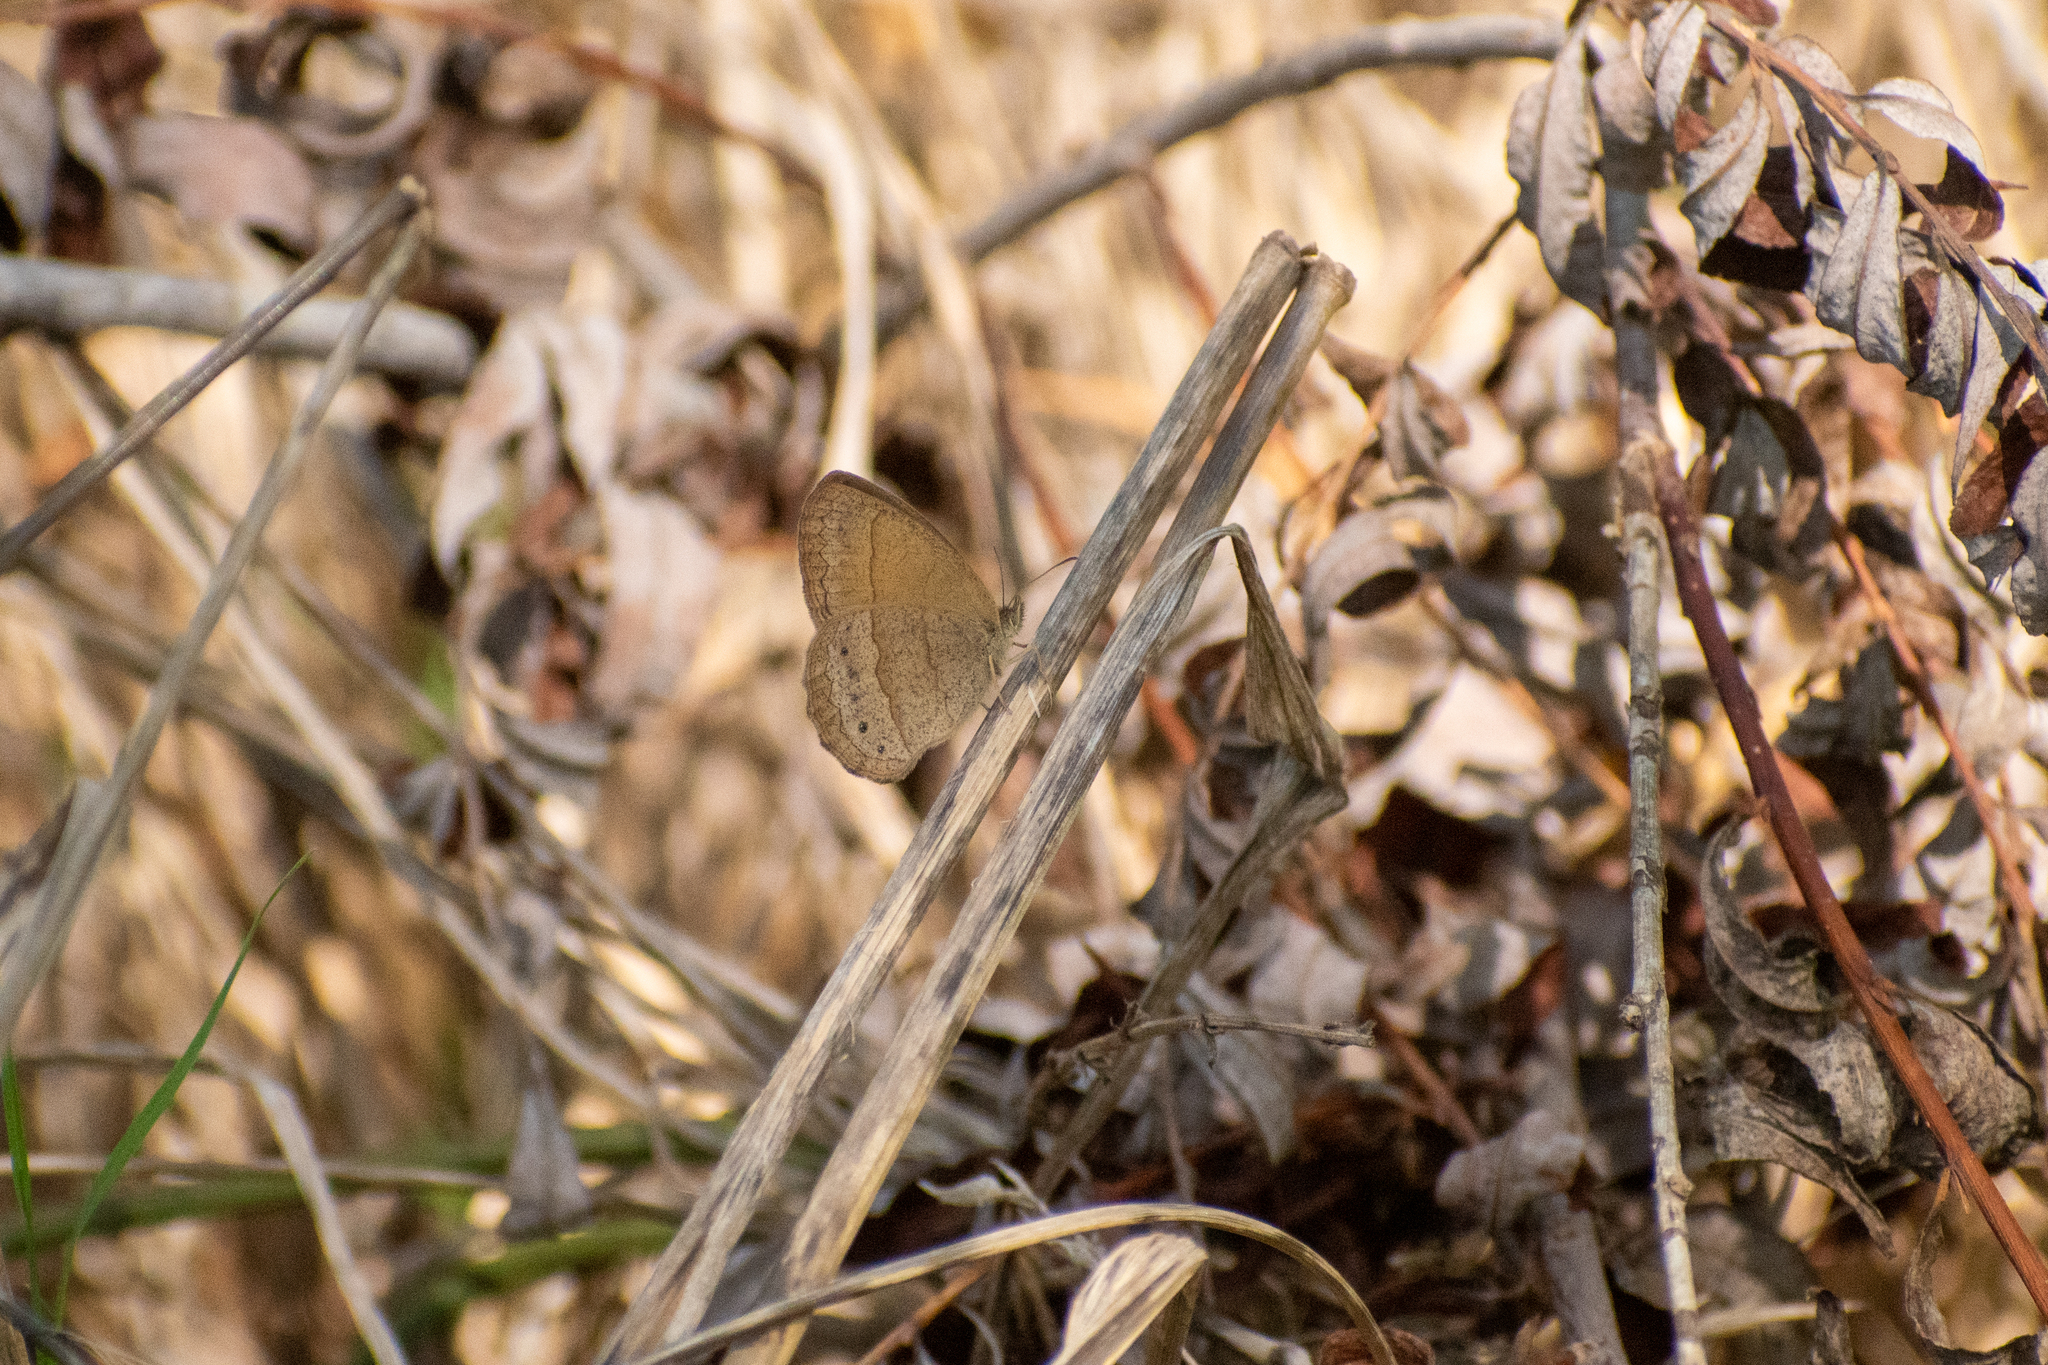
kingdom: Animalia
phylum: Arthropoda
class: Insecta
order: Lepidoptera
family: Nymphalidae
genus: Yphthimoides
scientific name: Yphthimoides celmis
